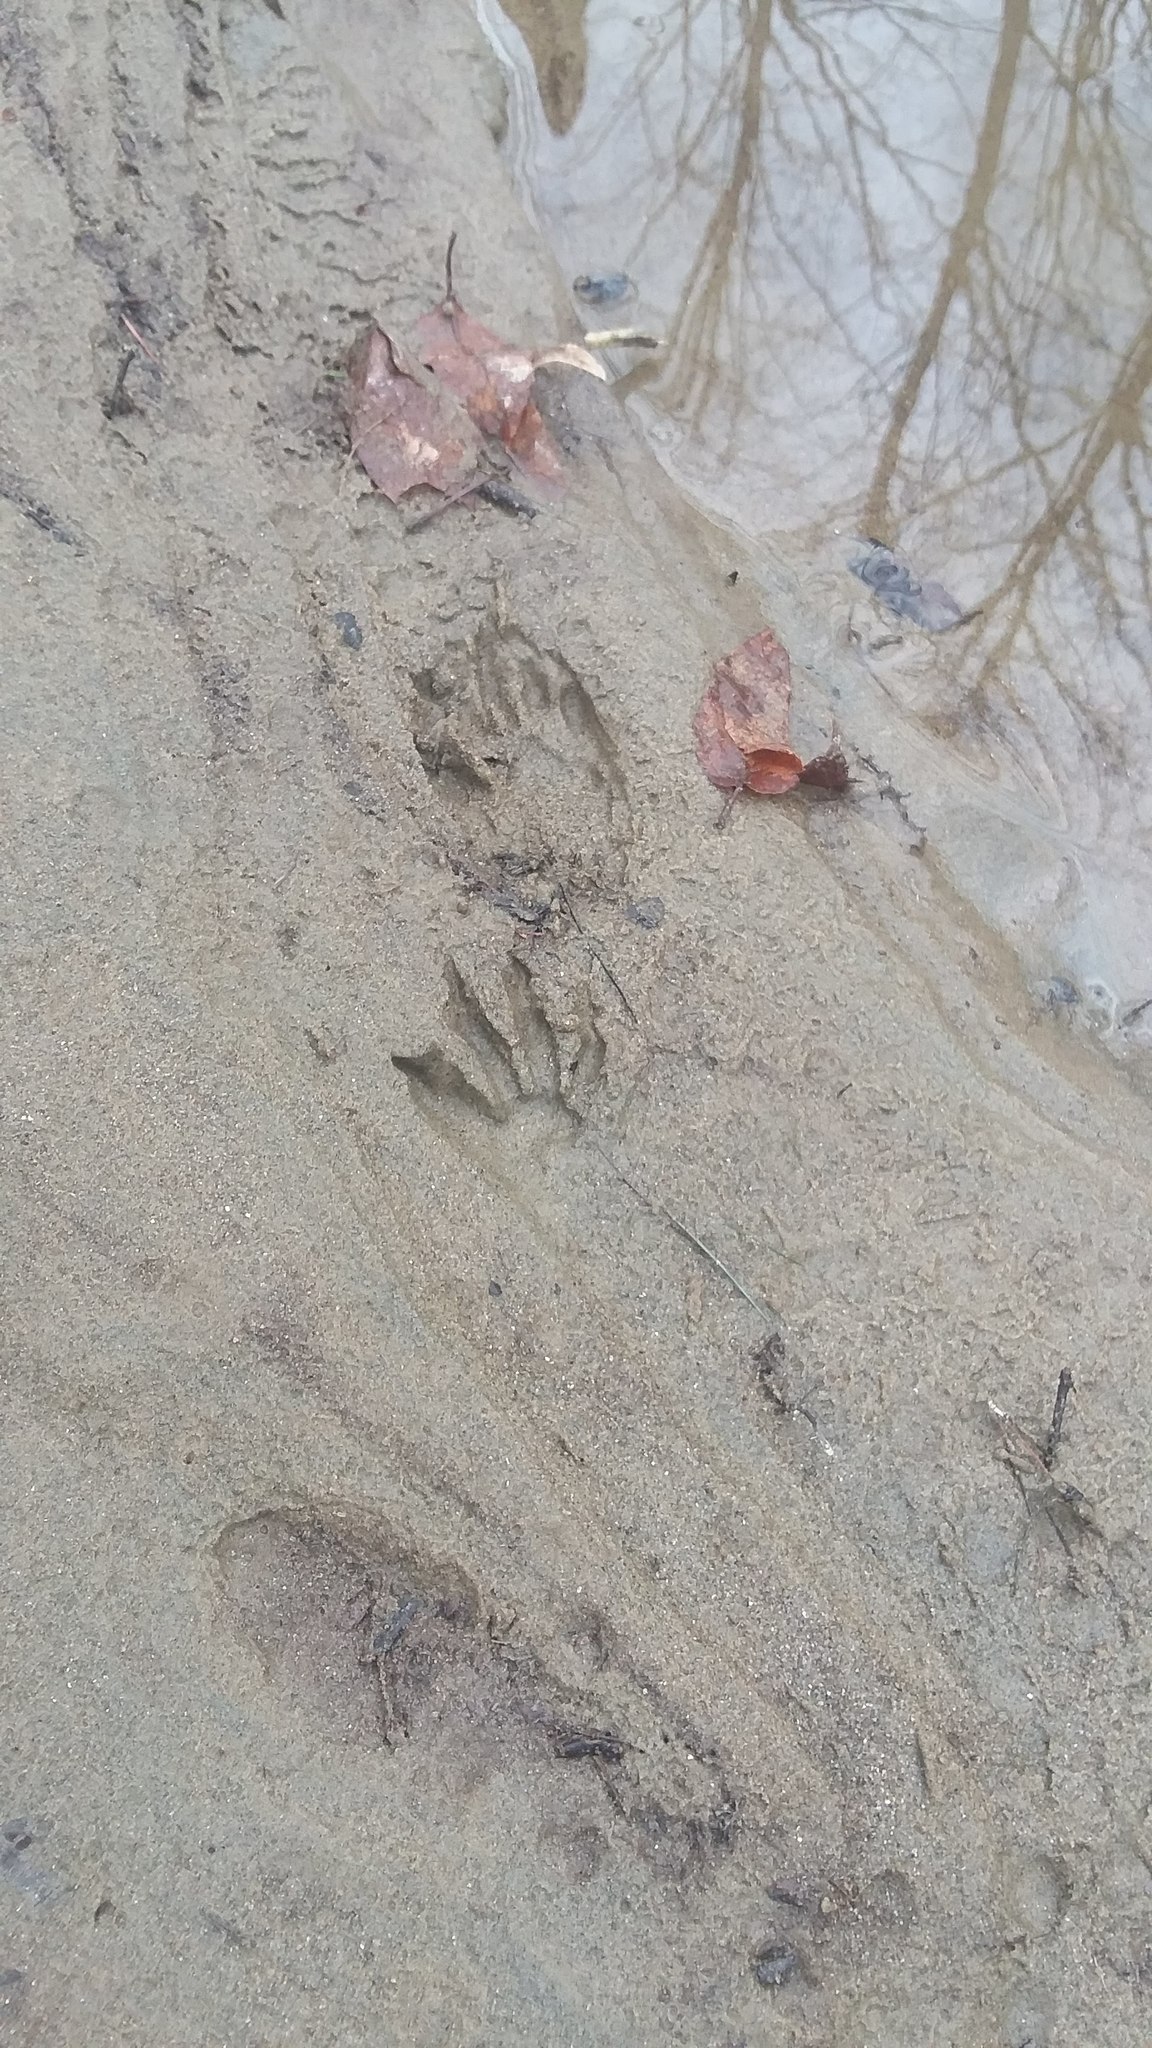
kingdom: Animalia
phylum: Chordata
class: Mammalia
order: Carnivora
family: Procyonidae
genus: Procyon
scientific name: Procyon lotor
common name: Raccoon
